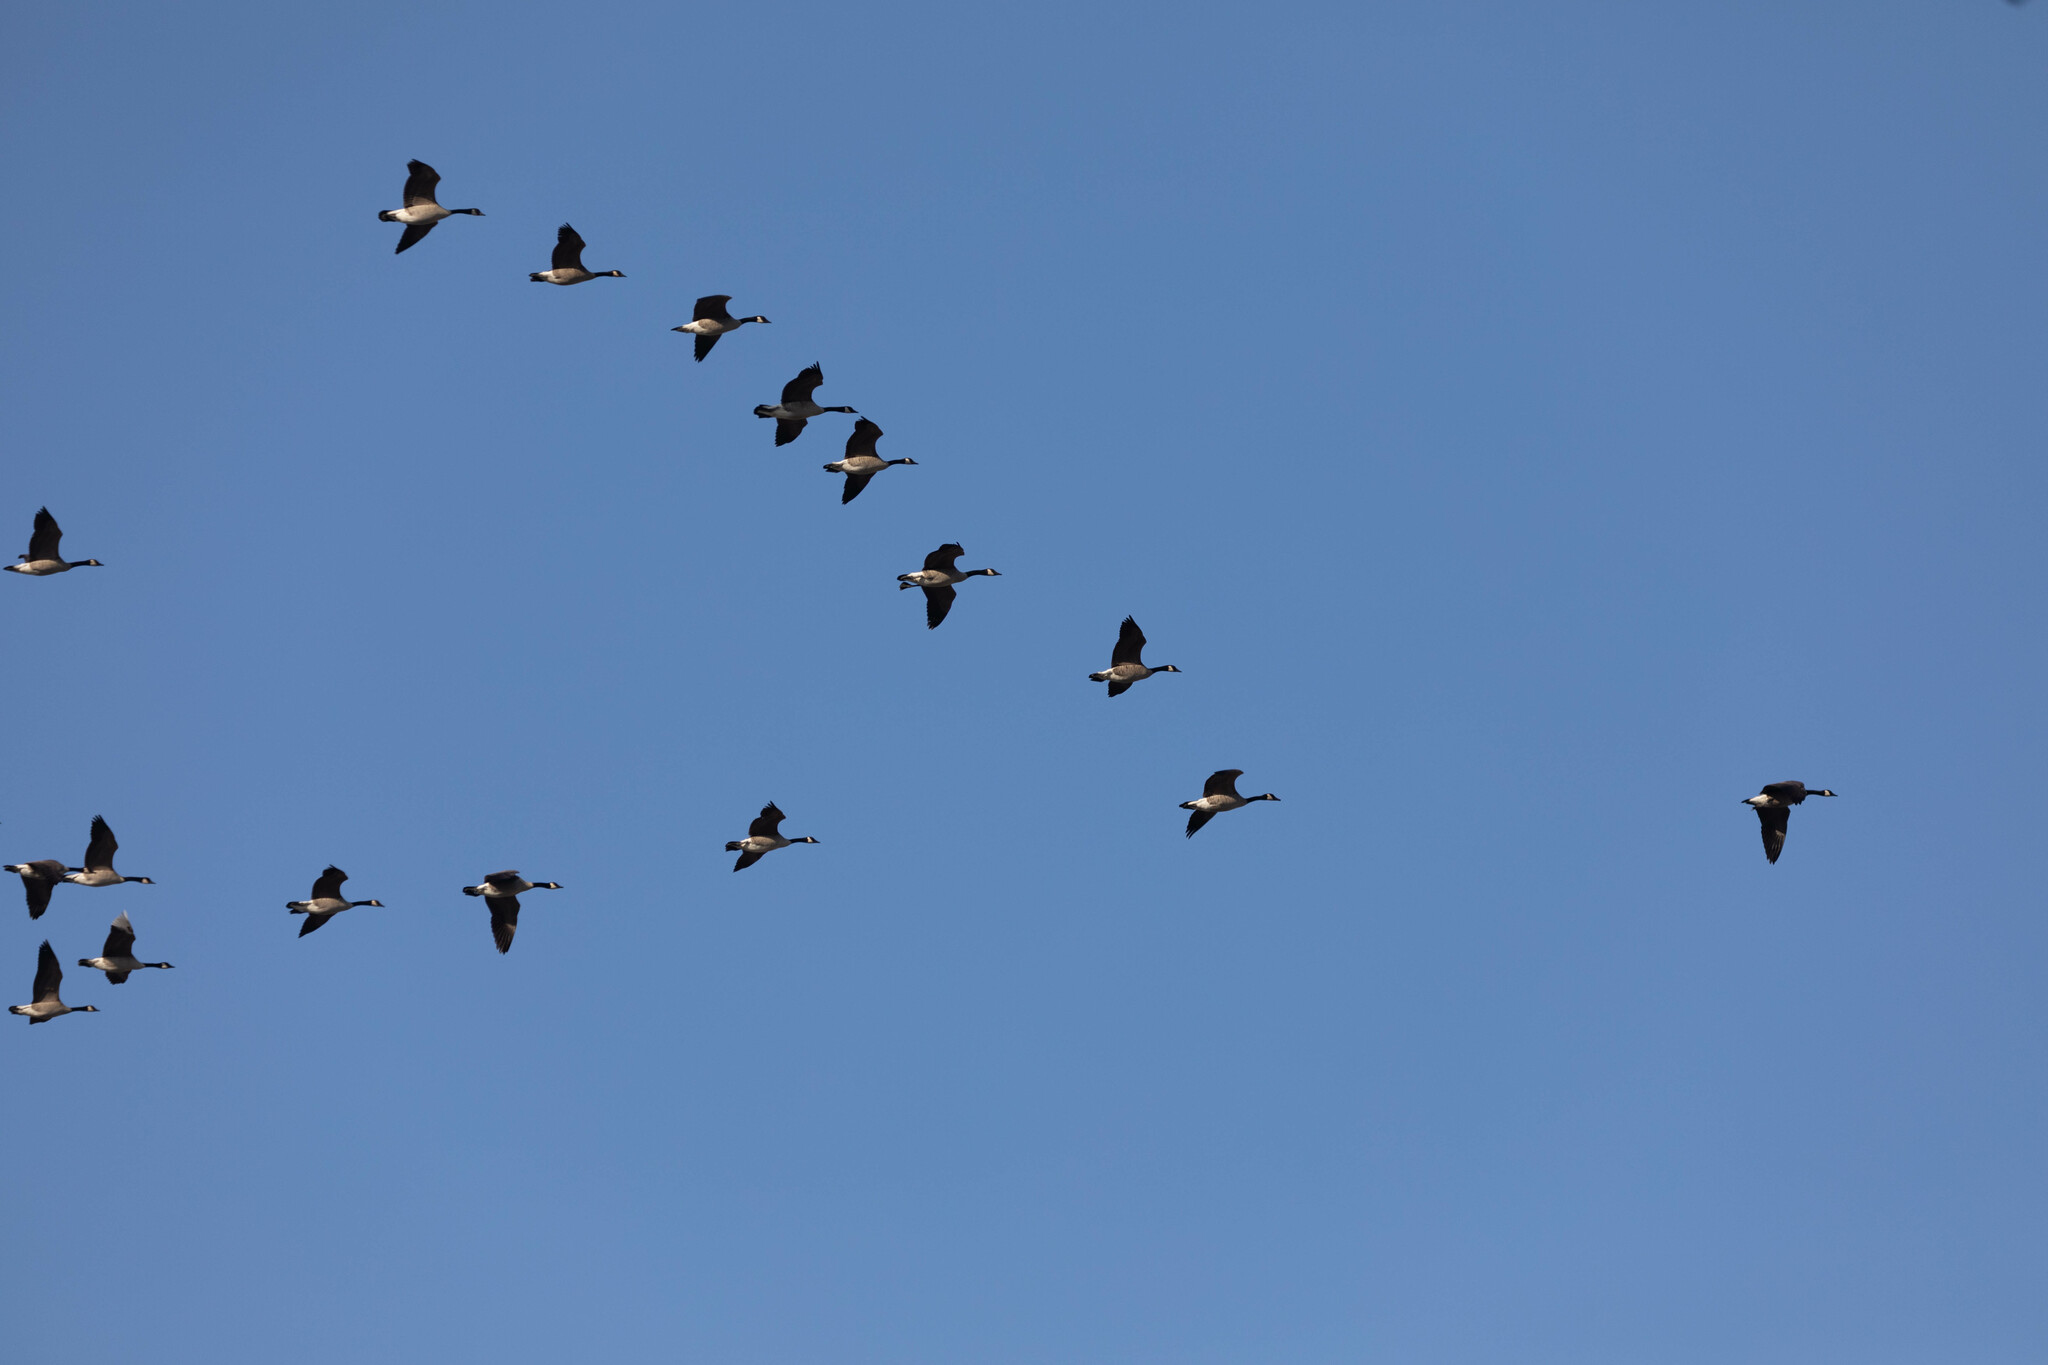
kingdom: Animalia
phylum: Chordata
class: Aves
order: Anseriformes
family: Anatidae
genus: Branta
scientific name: Branta canadensis
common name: Canada goose
